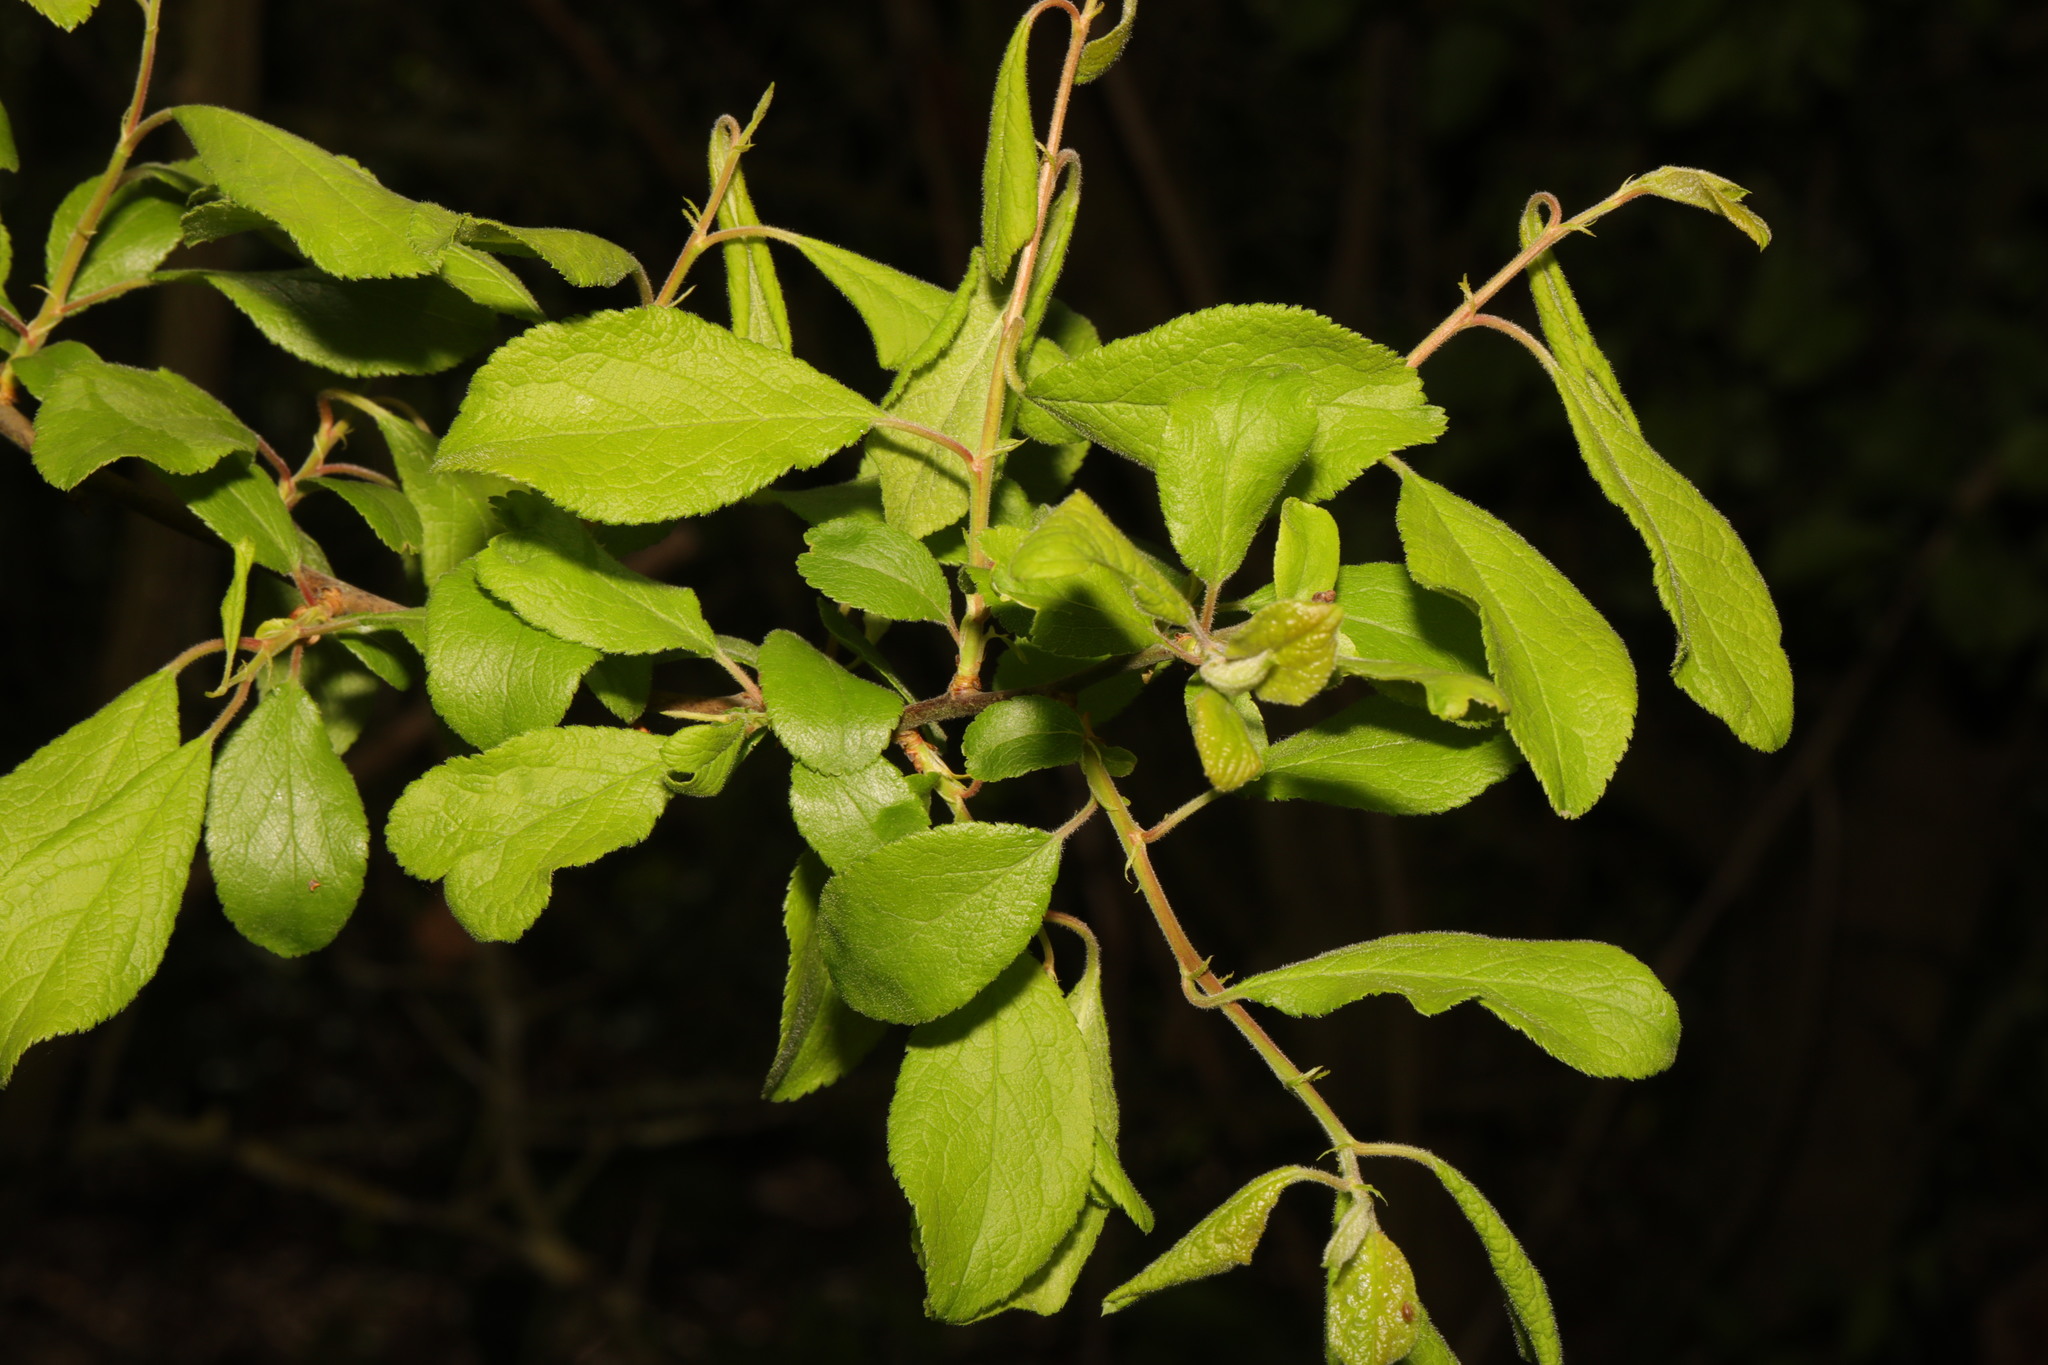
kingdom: Plantae
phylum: Tracheophyta
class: Magnoliopsida
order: Rosales
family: Rosaceae
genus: Prunus
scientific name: Prunus spinosa
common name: Blackthorn
